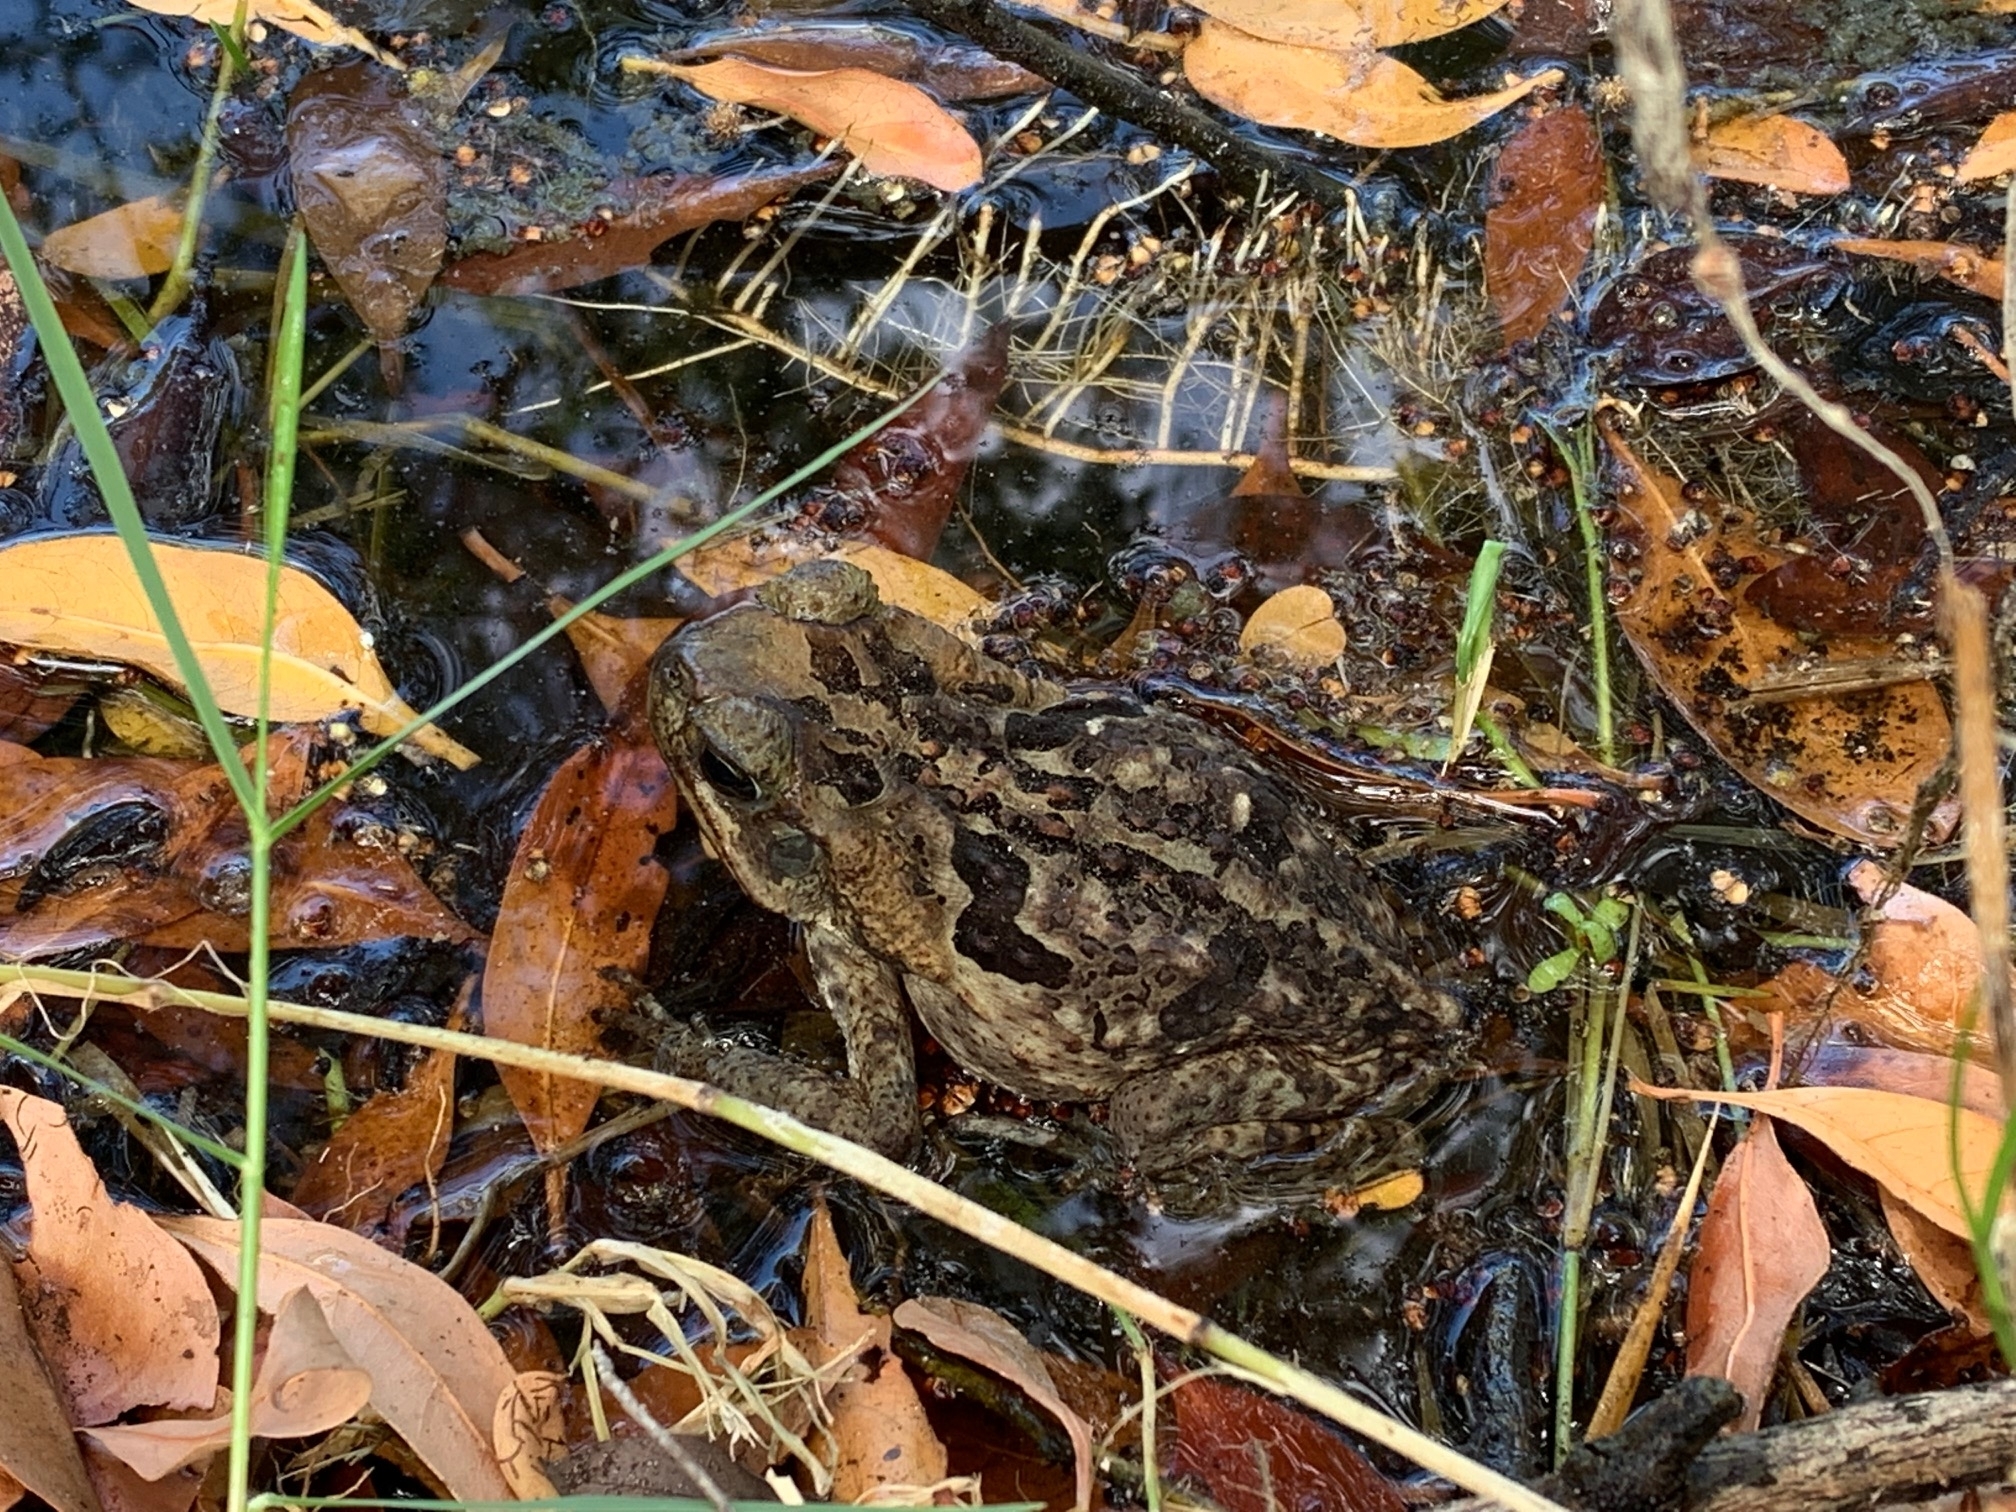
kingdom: Animalia
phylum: Chordata
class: Amphibia
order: Anura
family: Bufonidae
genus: Rhinella
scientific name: Rhinella marina
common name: Cane toad
